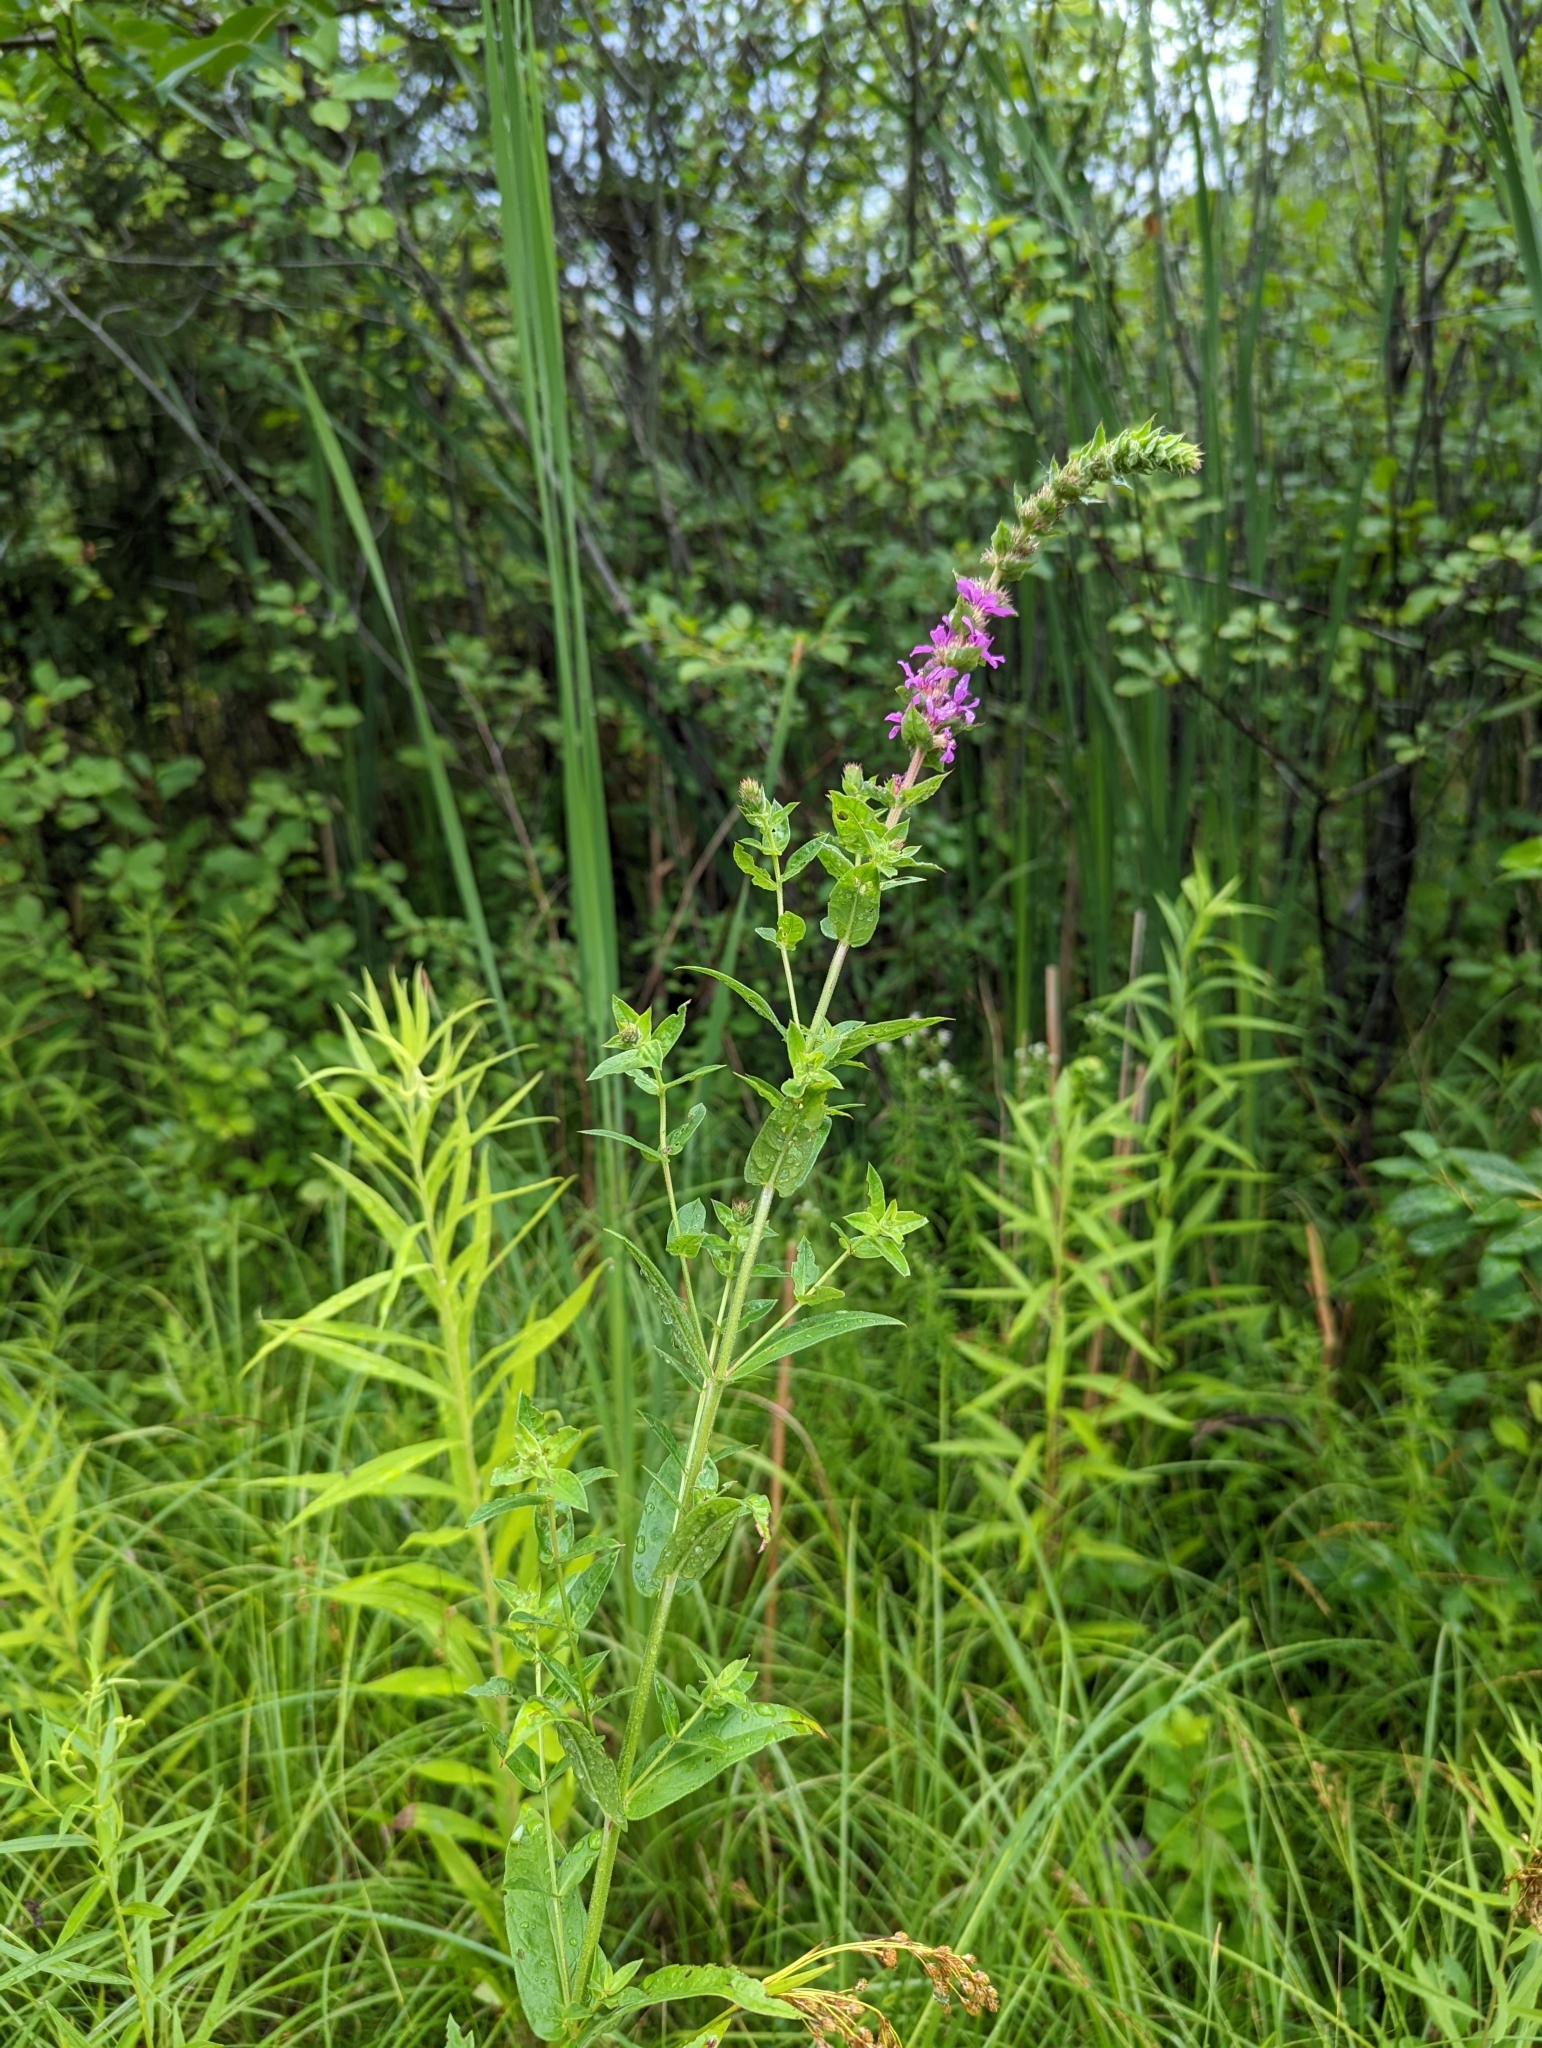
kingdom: Plantae
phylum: Tracheophyta
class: Magnoliopsida
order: Myrtales
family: Lythraceae
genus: Lythrum
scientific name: Lythrum salicaria
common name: Purple loosestrife
